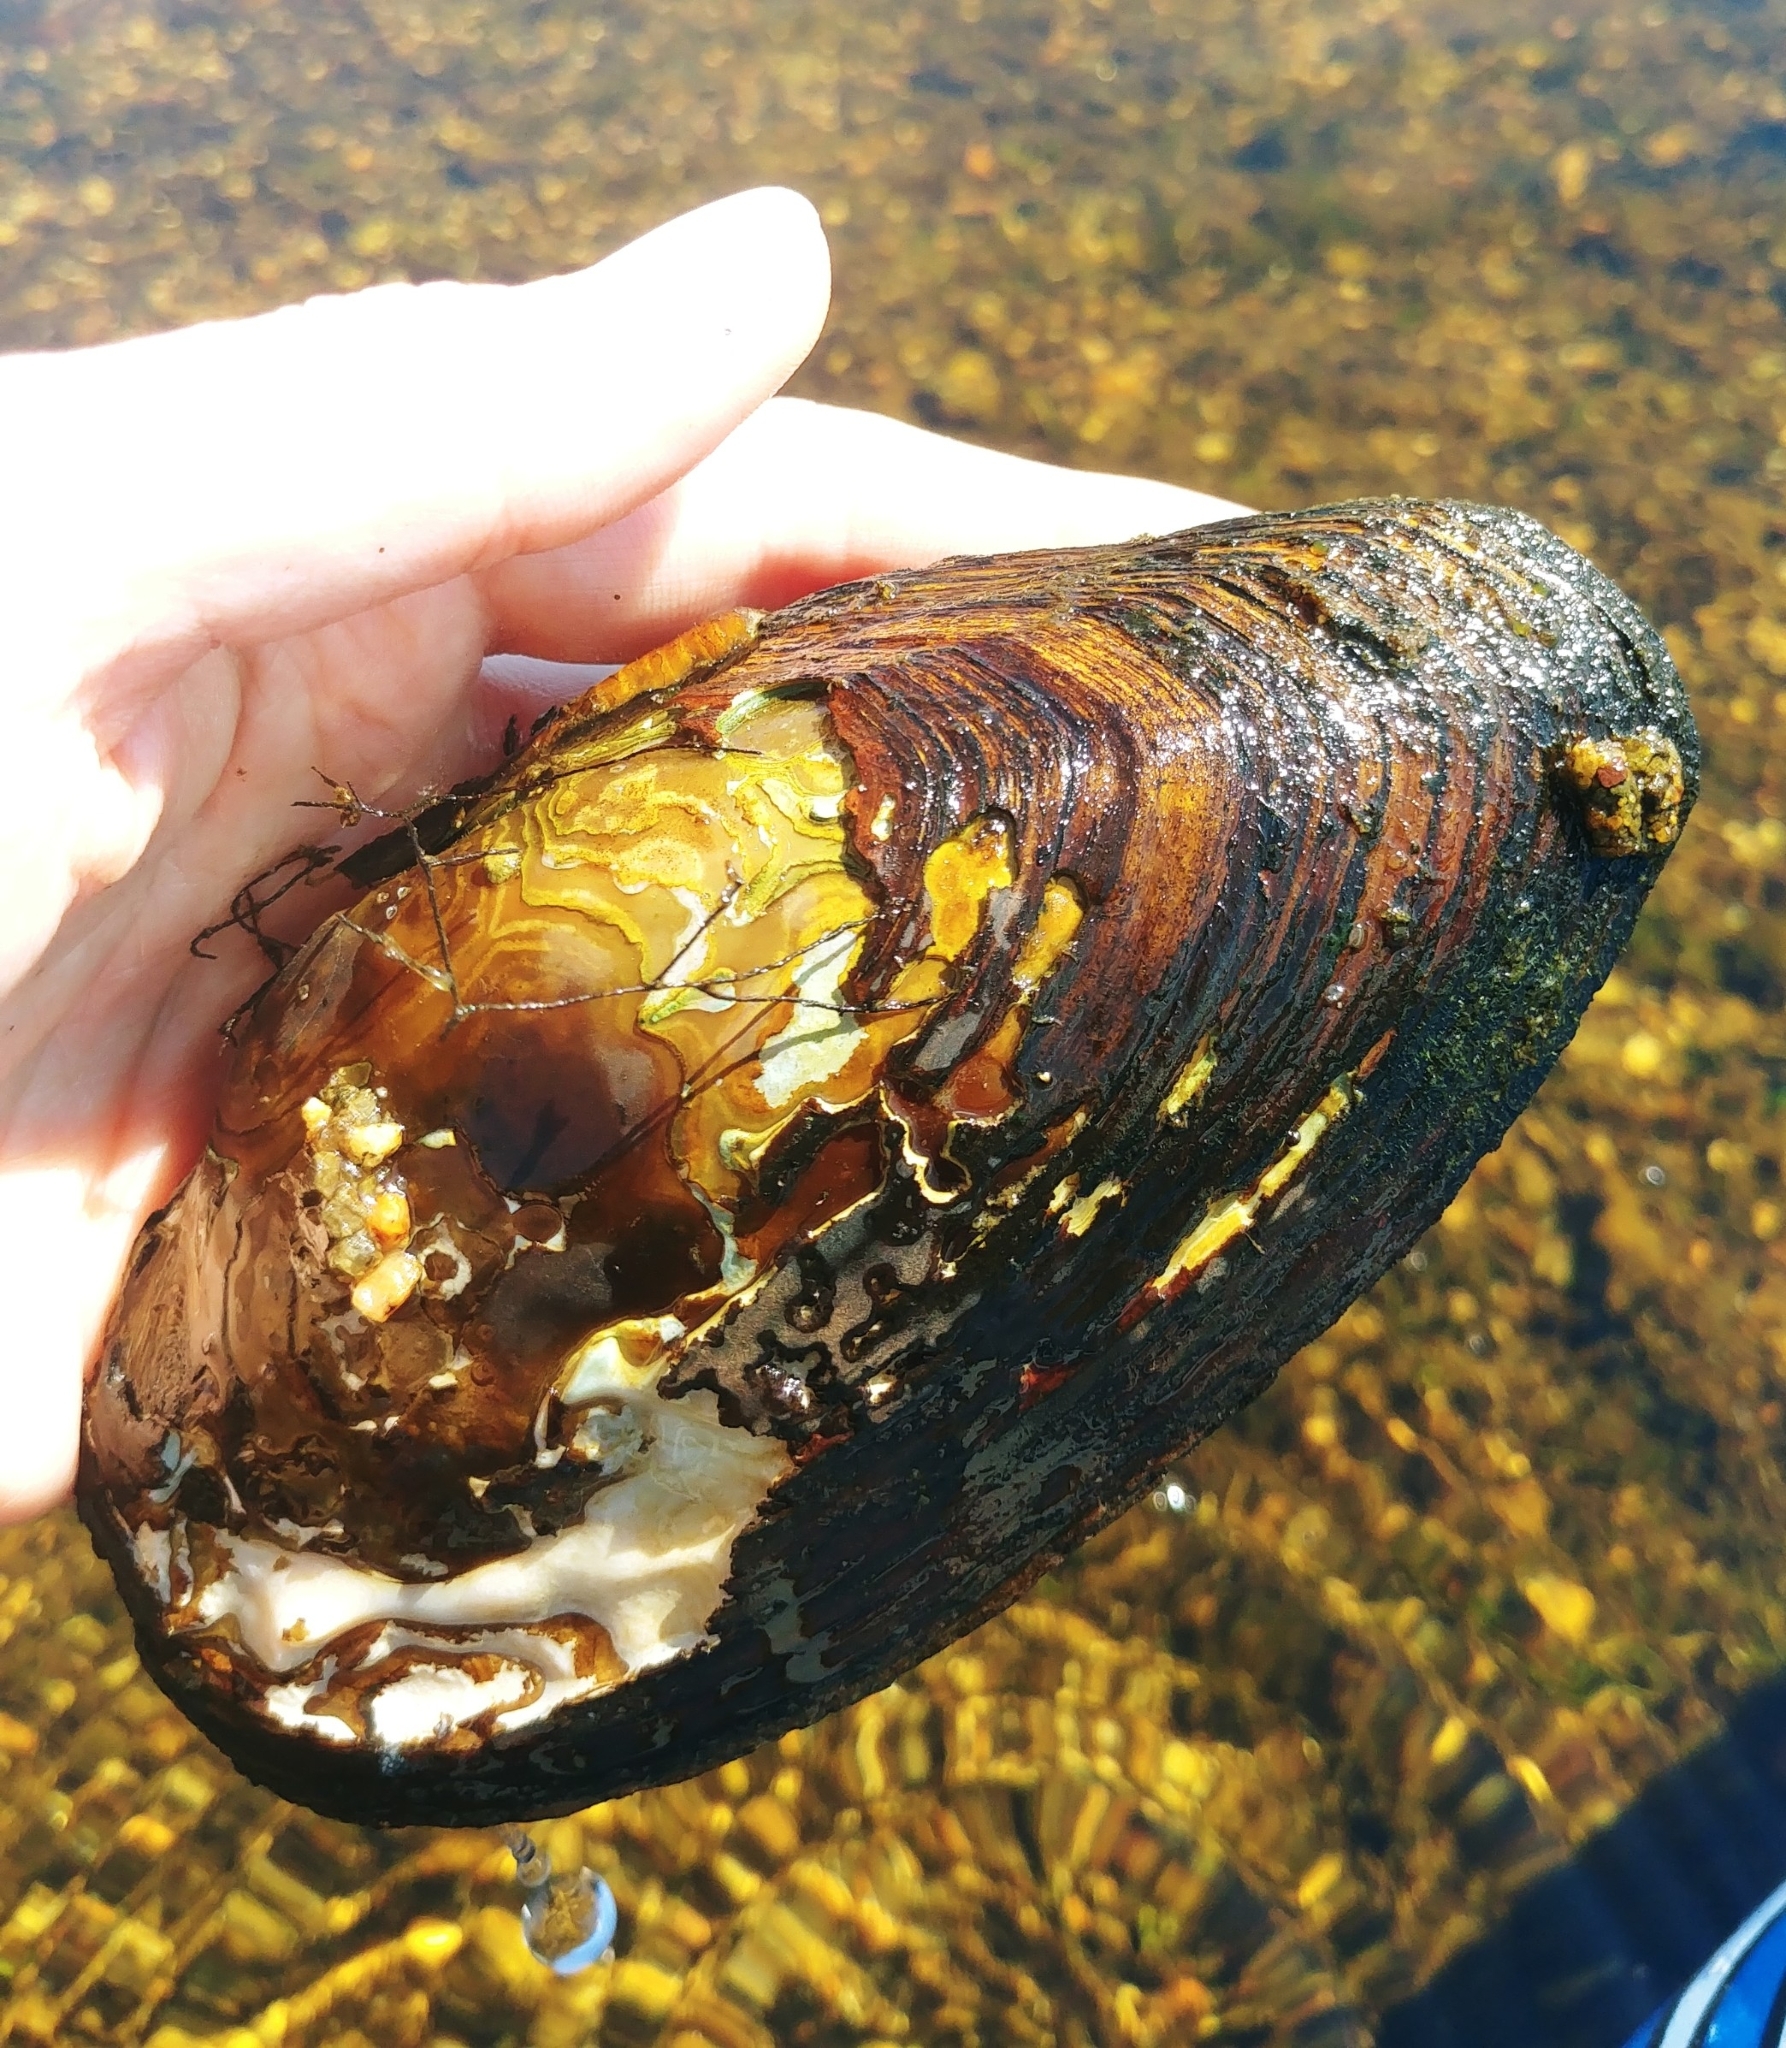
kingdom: Animalia
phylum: Mollusca
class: Bivalvia
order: Unionida
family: Unionidae
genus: Utterbackiana
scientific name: Utterbackiana implicata
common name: Alewife floater
